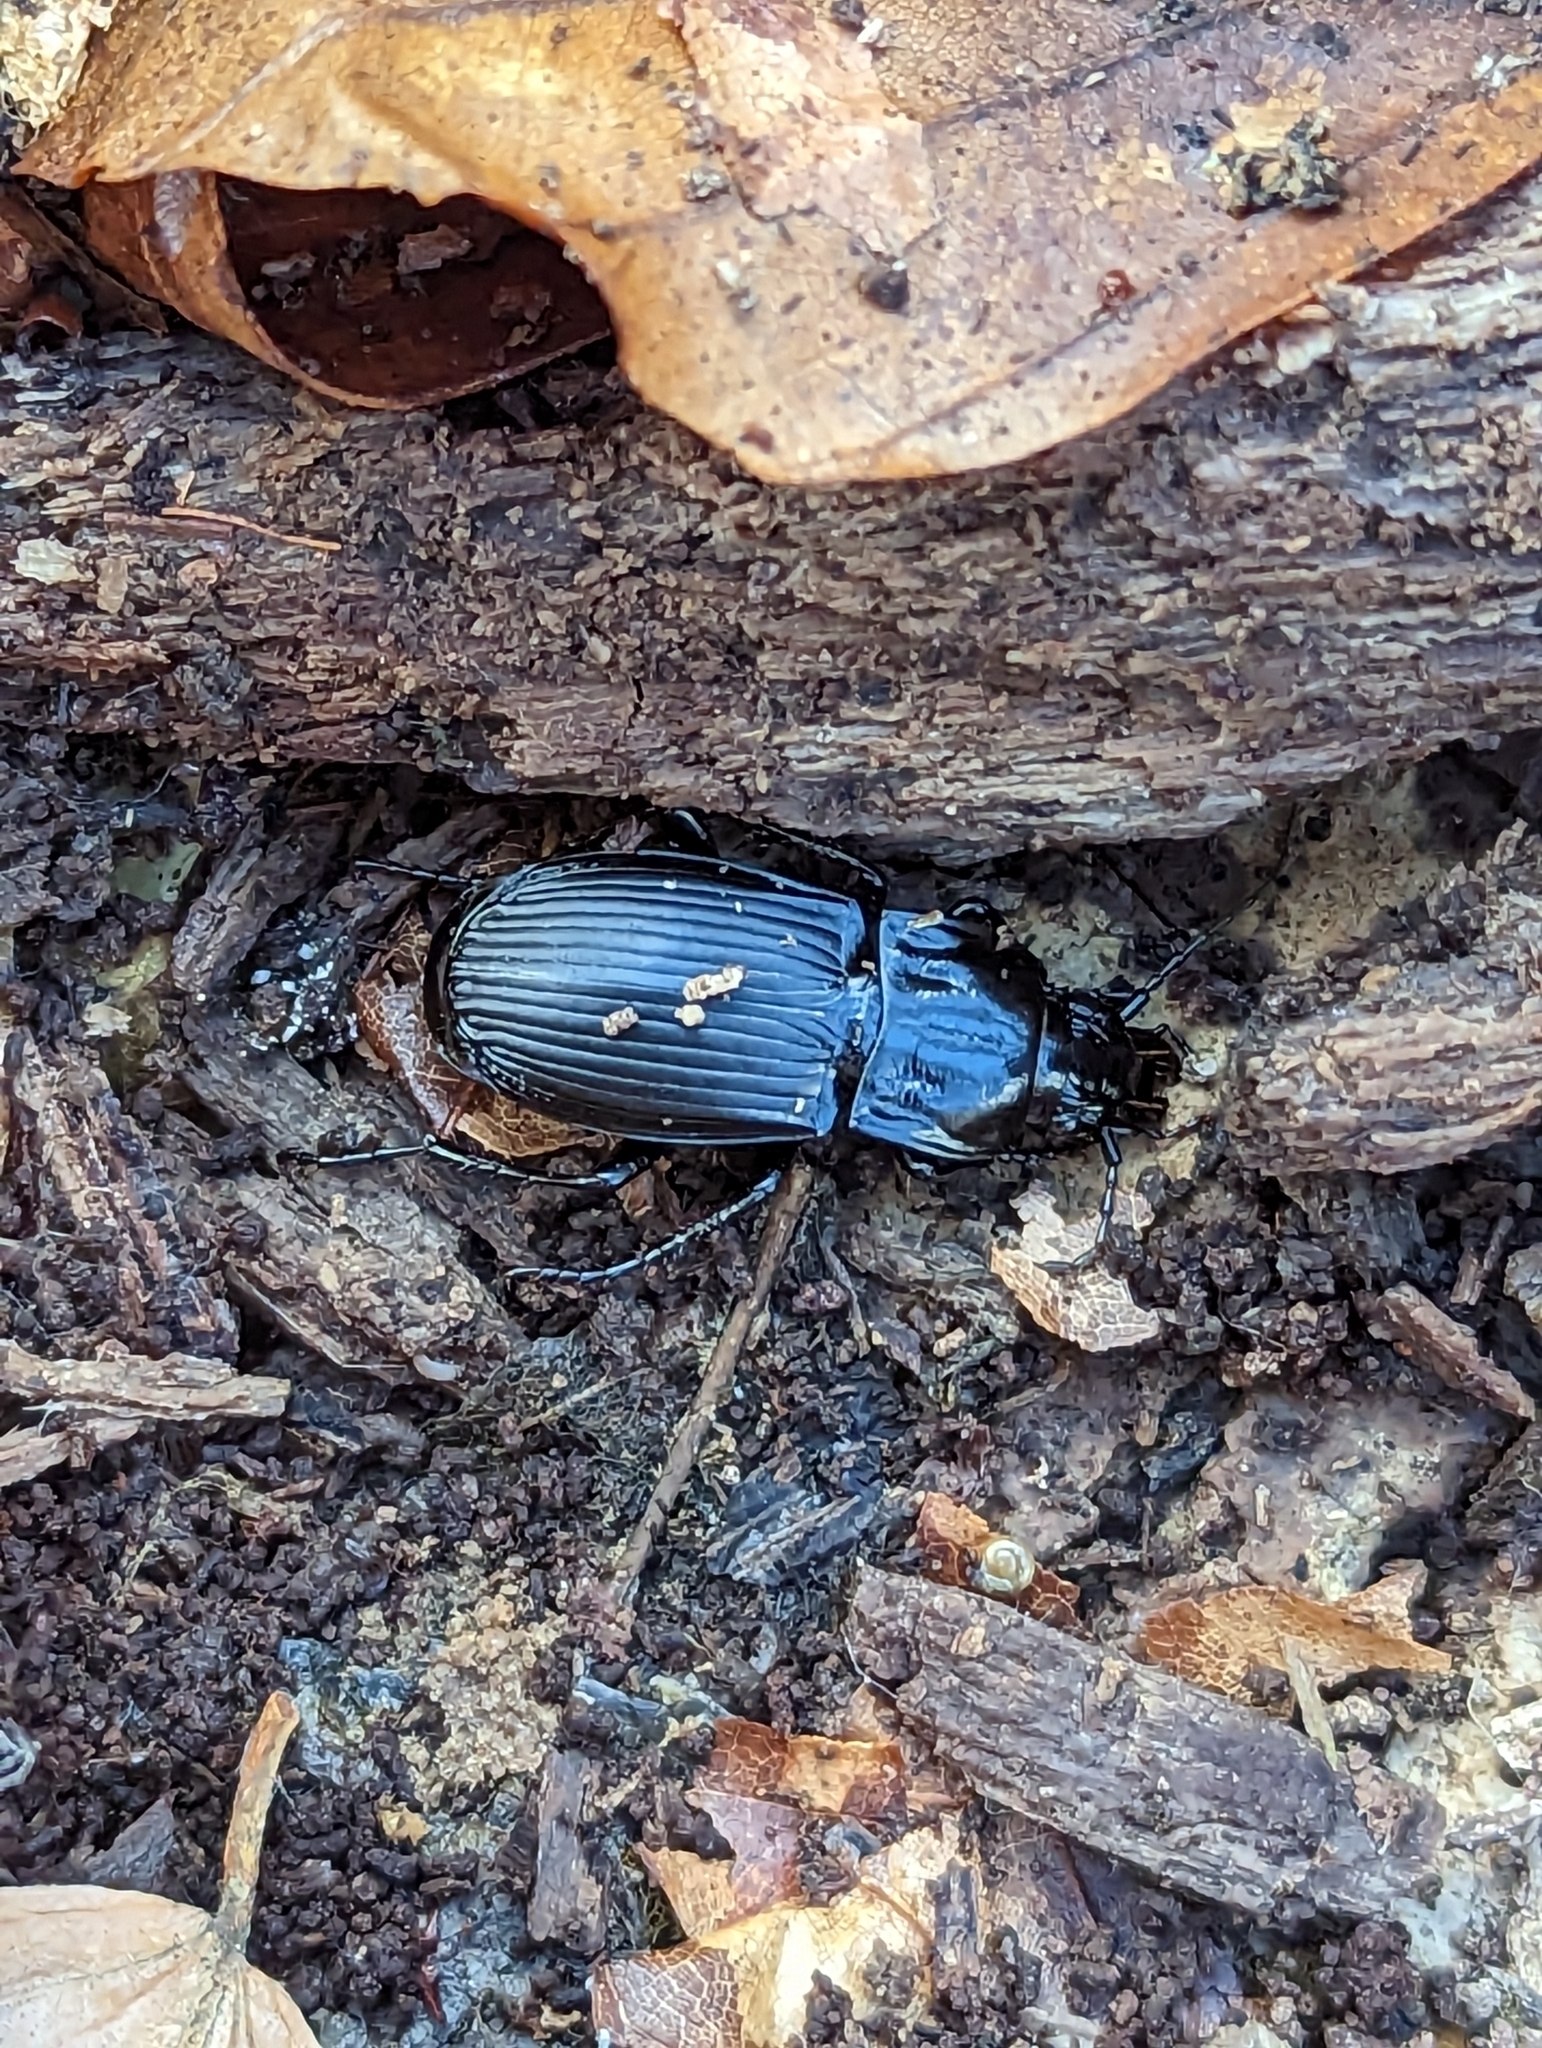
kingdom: Animalia
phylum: Arthropoda
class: Insecta
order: Coleoptera
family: Carabidae
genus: Abax
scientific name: Abax parallelepipedus
